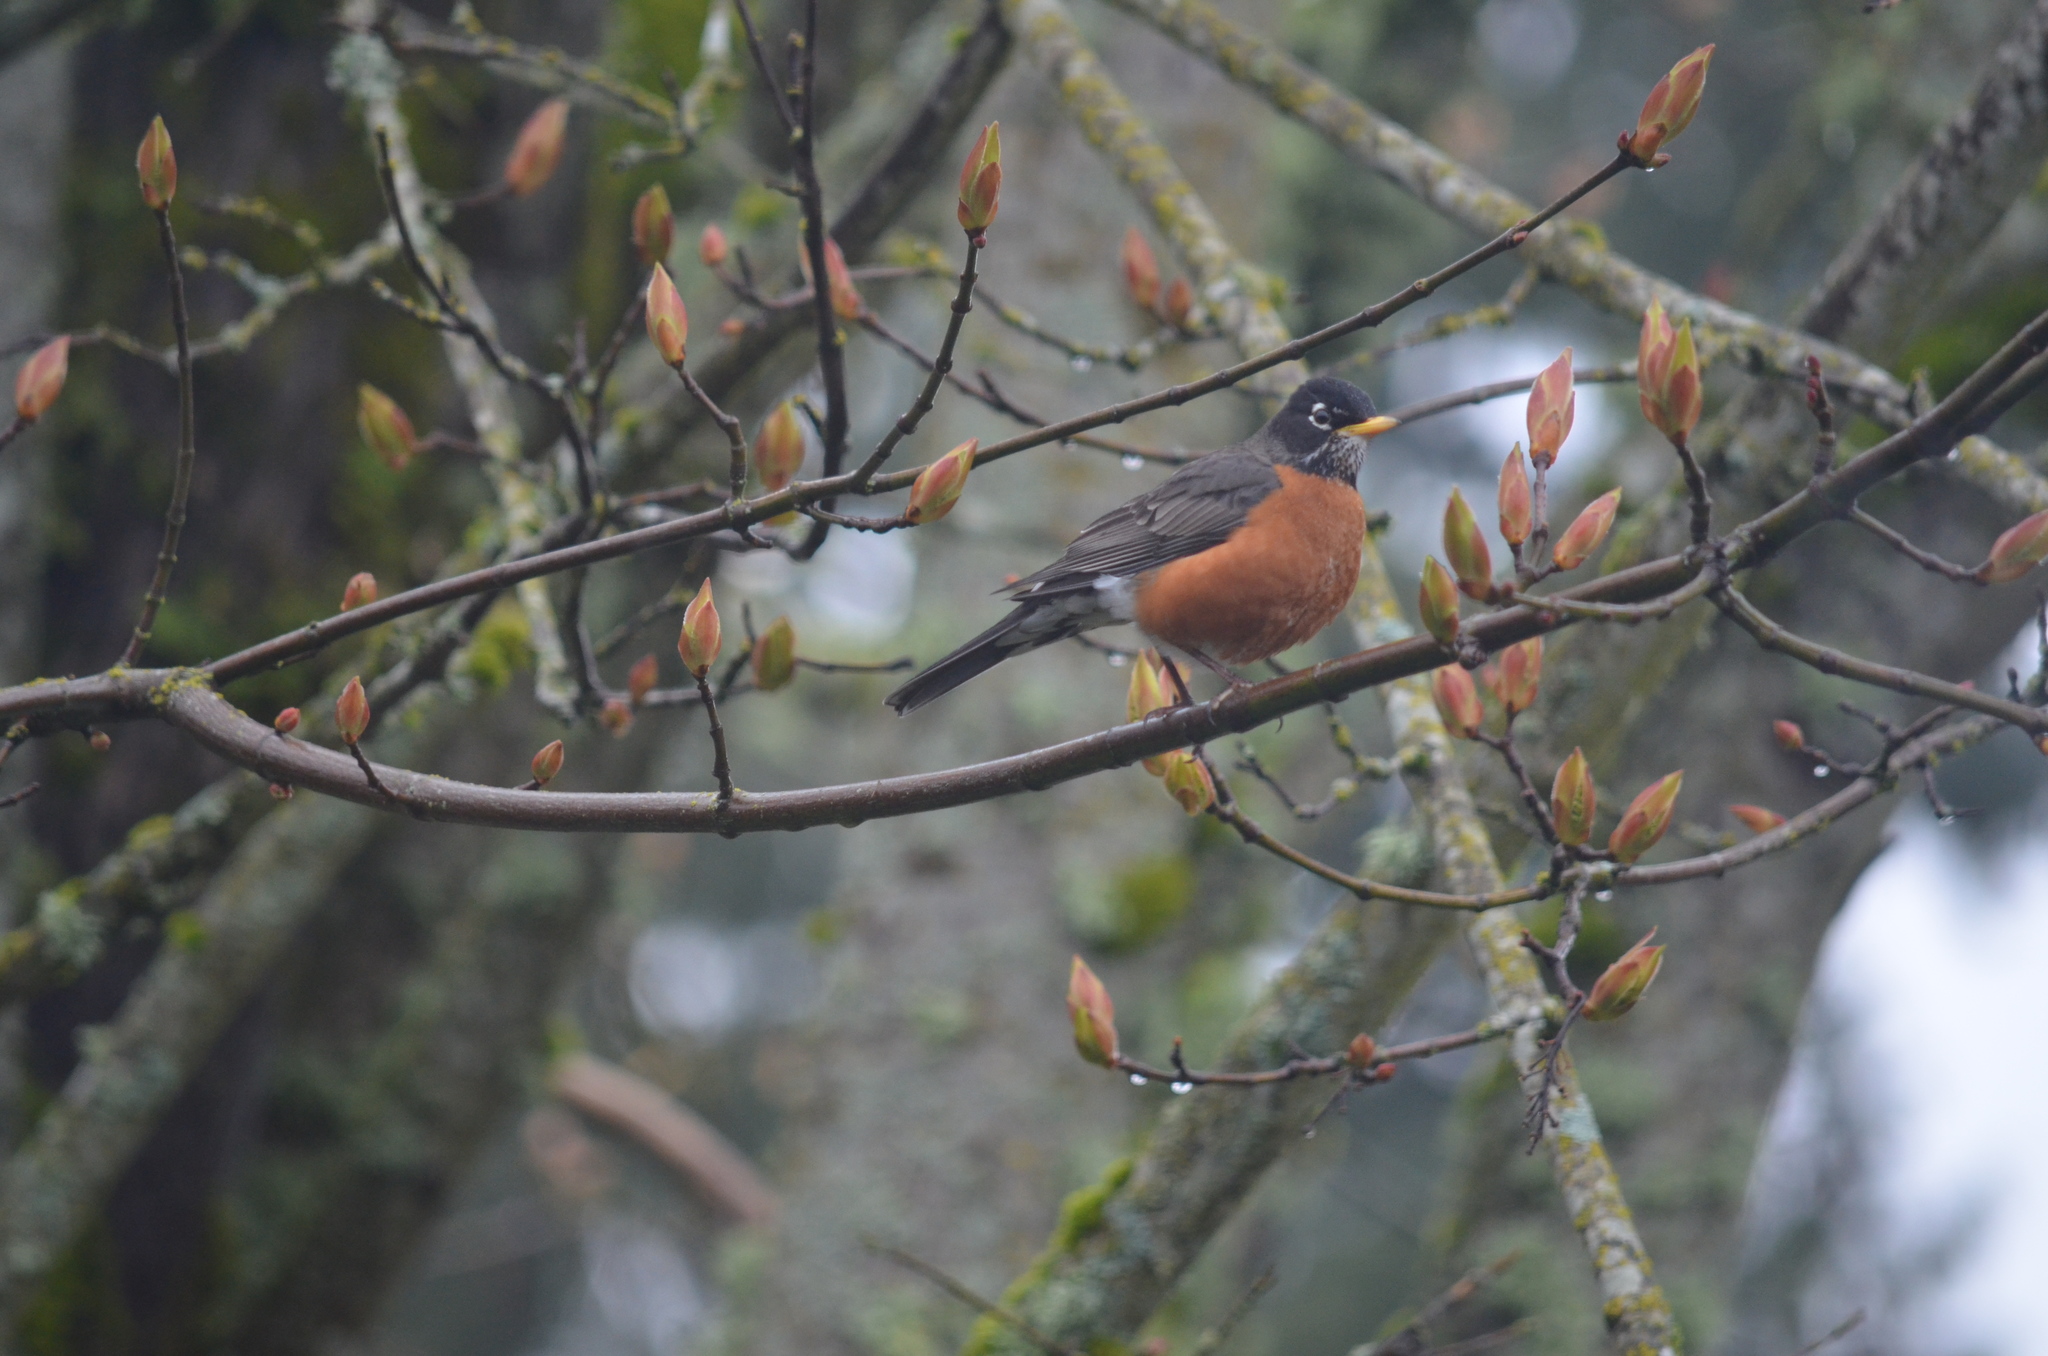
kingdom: Animalia
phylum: Chordata
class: Aves
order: Passeriformes
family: Turdidae
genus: Turdus
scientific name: Turdus migratorius
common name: American robin
